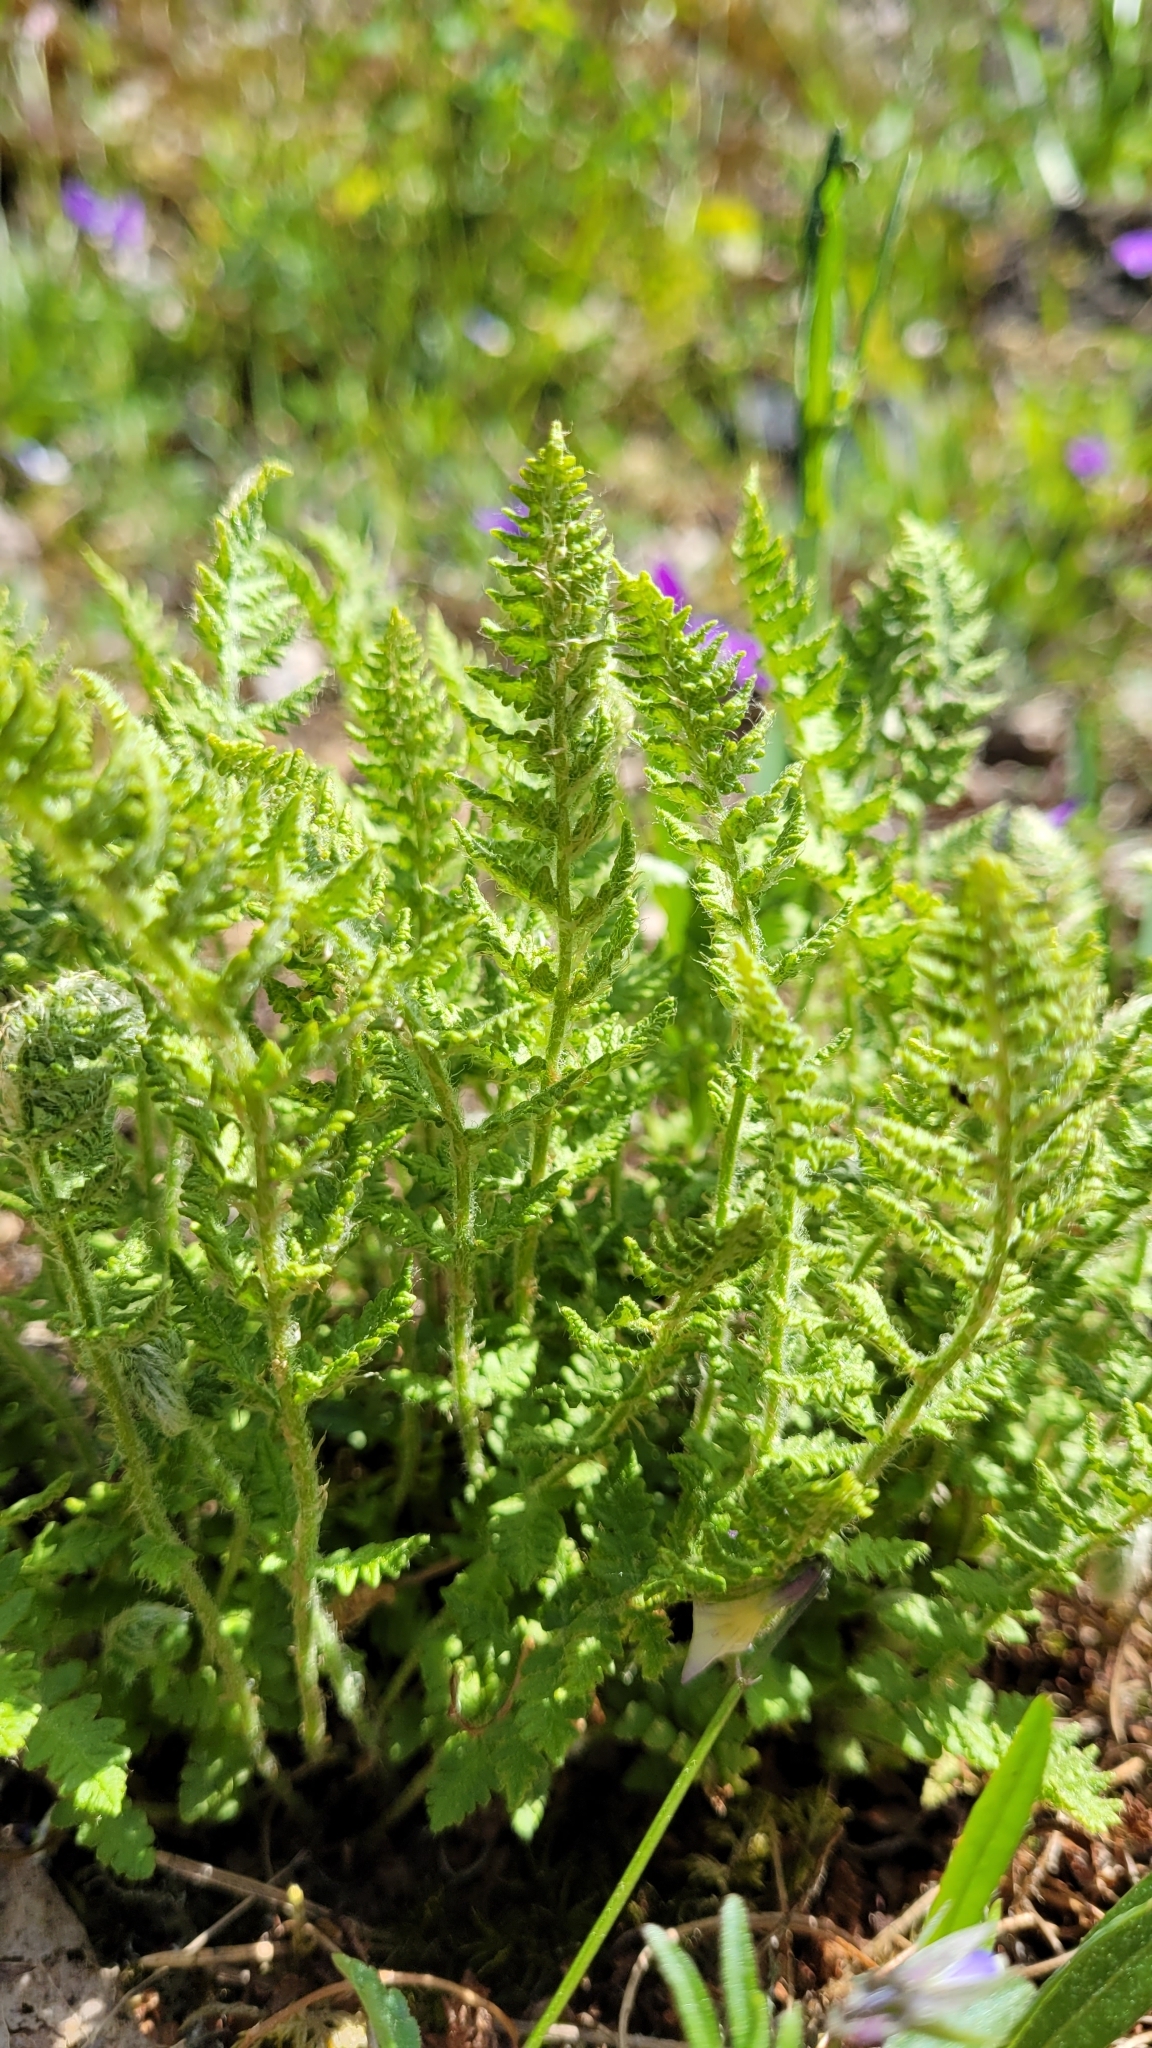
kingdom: Plantae
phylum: Tracheophyta
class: Polypodiopsida
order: Polypodiales
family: Woodsiaceae
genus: Woodsia
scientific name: Woodsia ilvensis
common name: Fragrant woodsia
